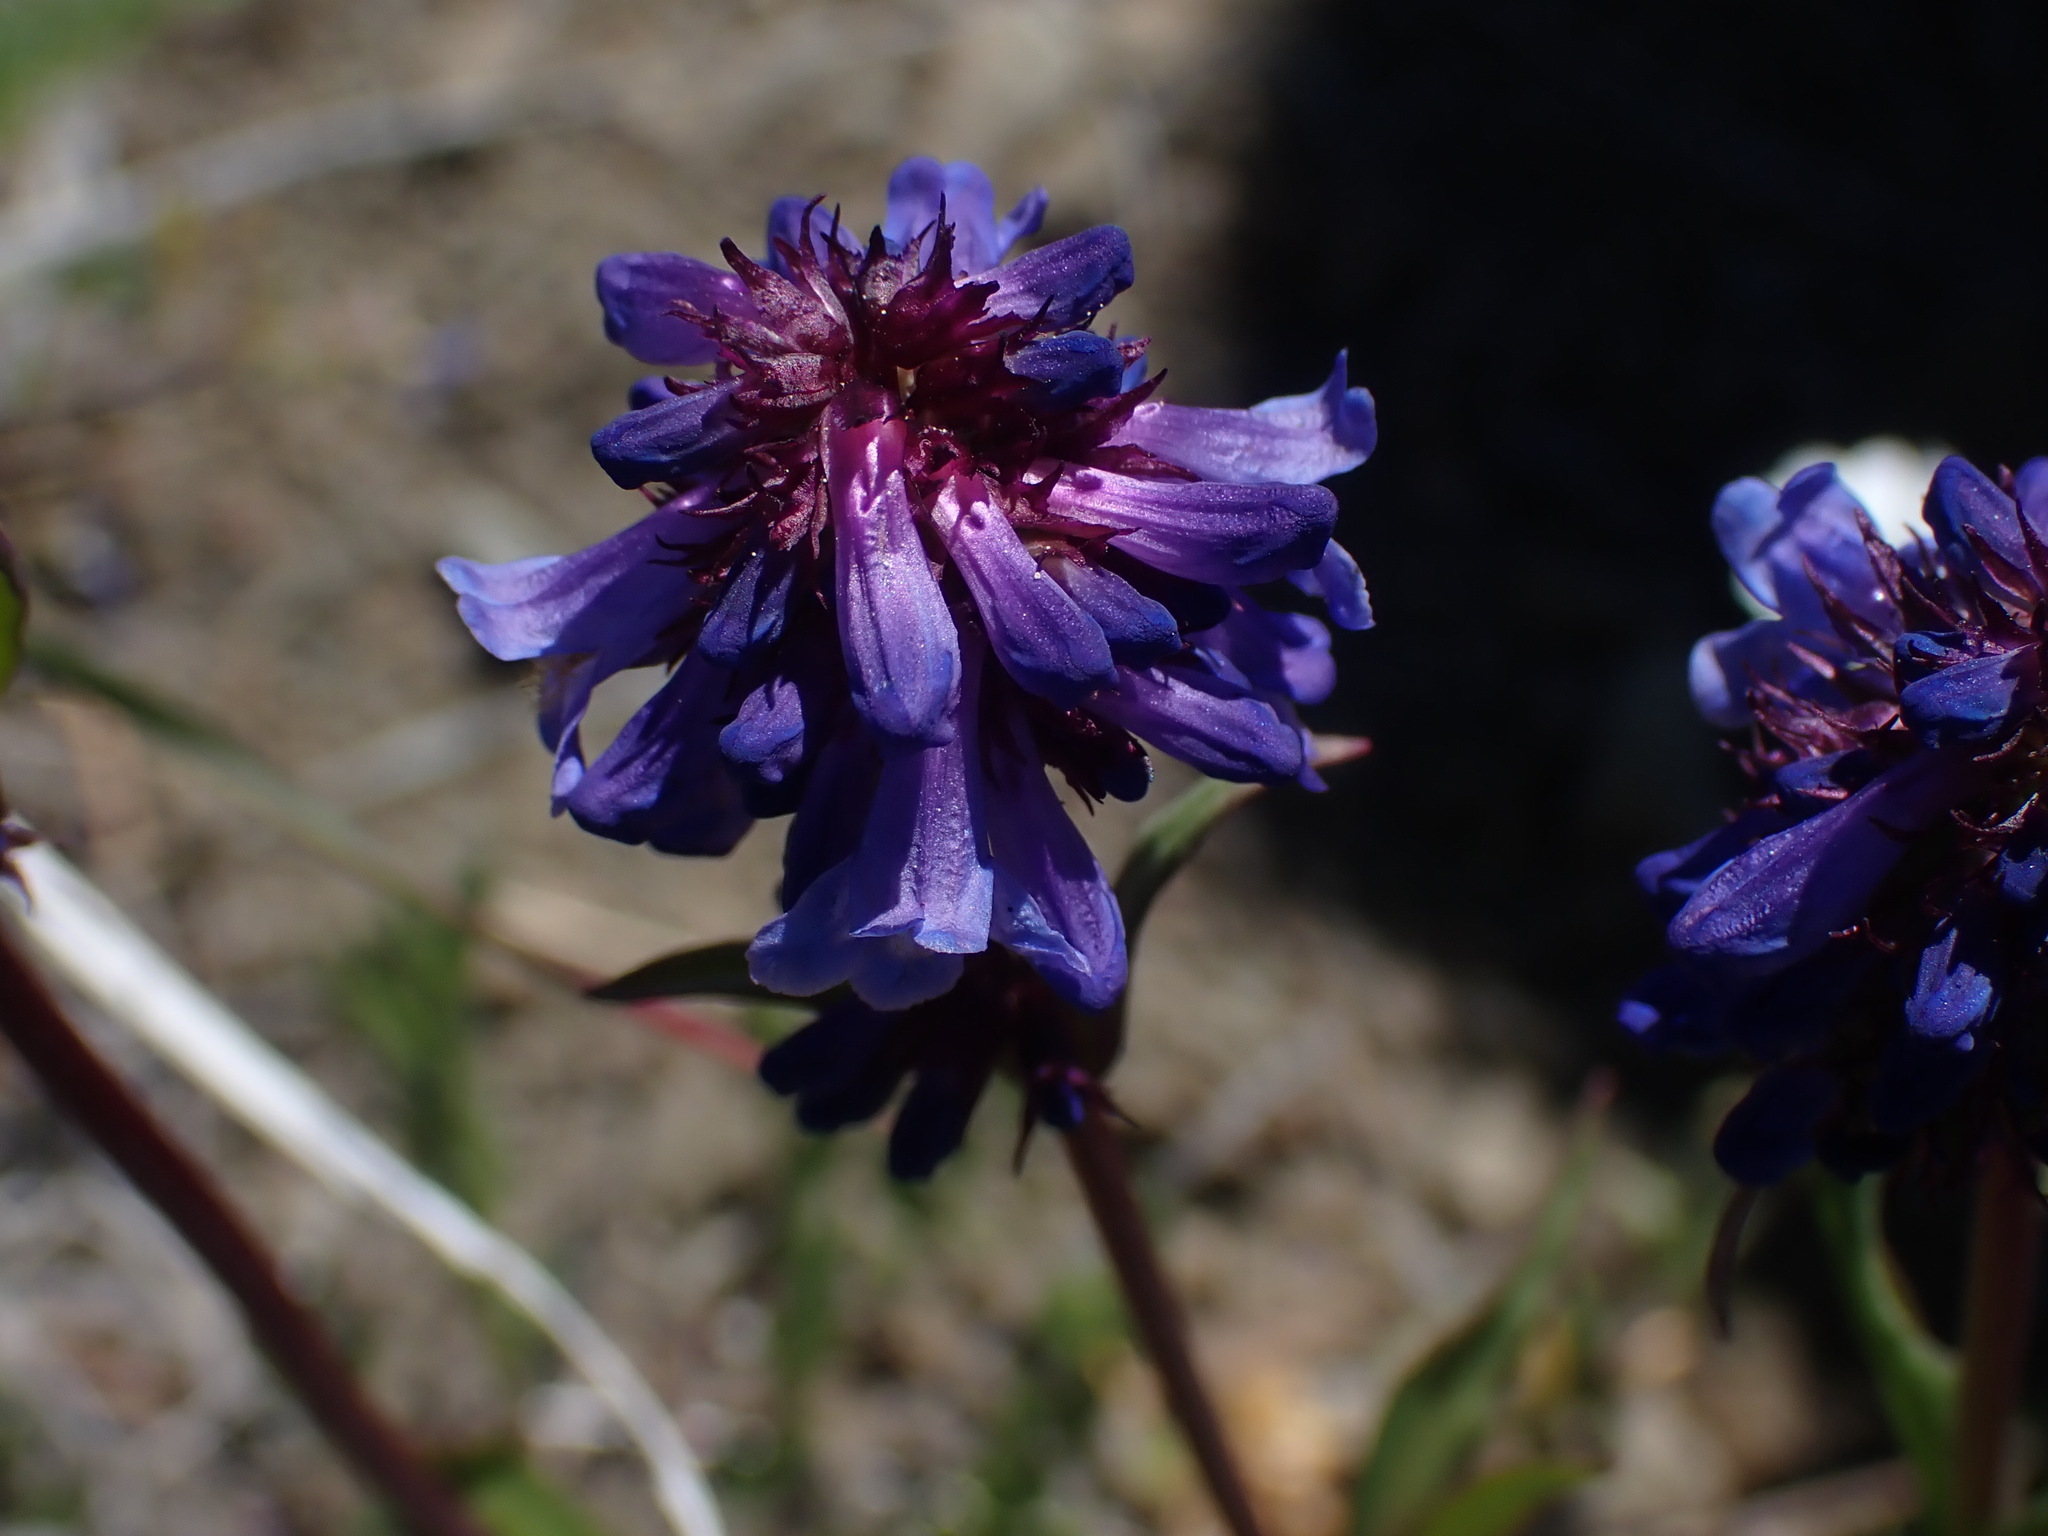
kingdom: Plantae
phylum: Tracheophyta
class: Magnoliopsida
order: Lamiales
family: Plantaginaceae
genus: Penstemon
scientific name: Penstemon procerus
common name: Small-flower penstemon
